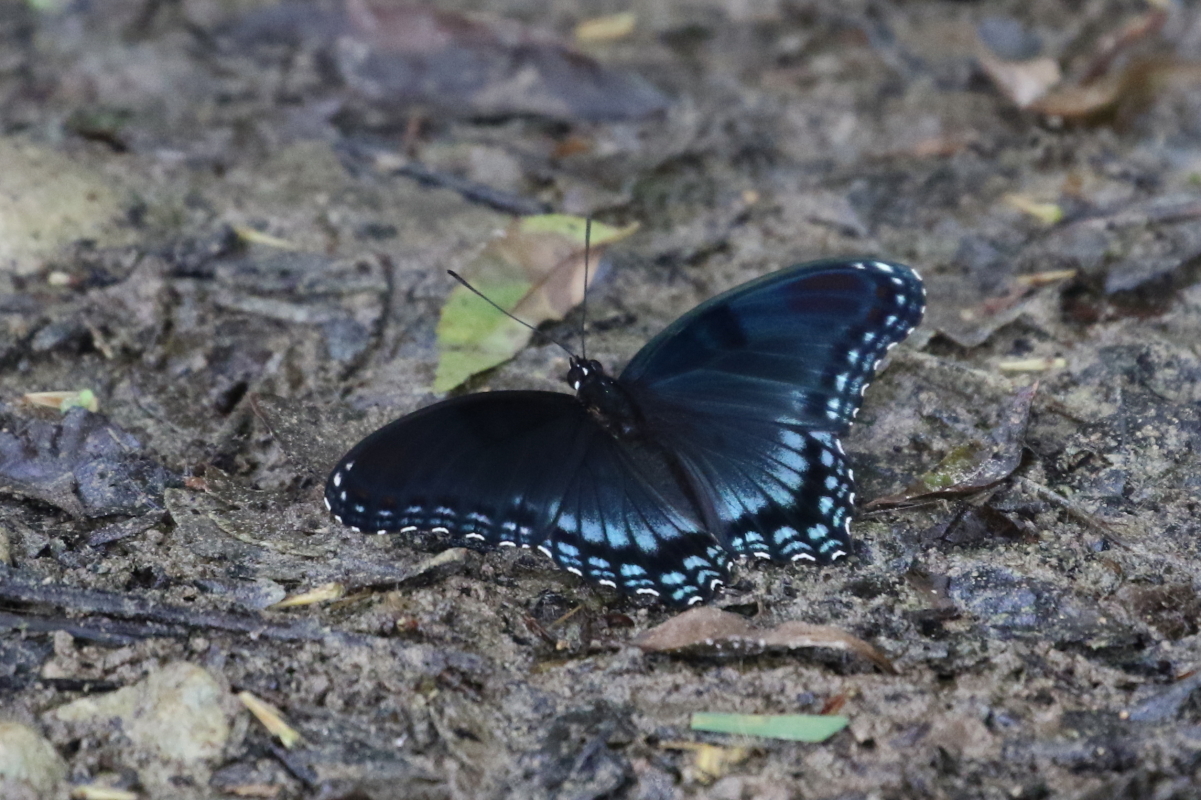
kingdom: Animalia
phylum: Arthropoda
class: Insecta
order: Lepidoptera
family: Nymphalidae
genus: Limenitis
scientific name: Limenitis astyanax
